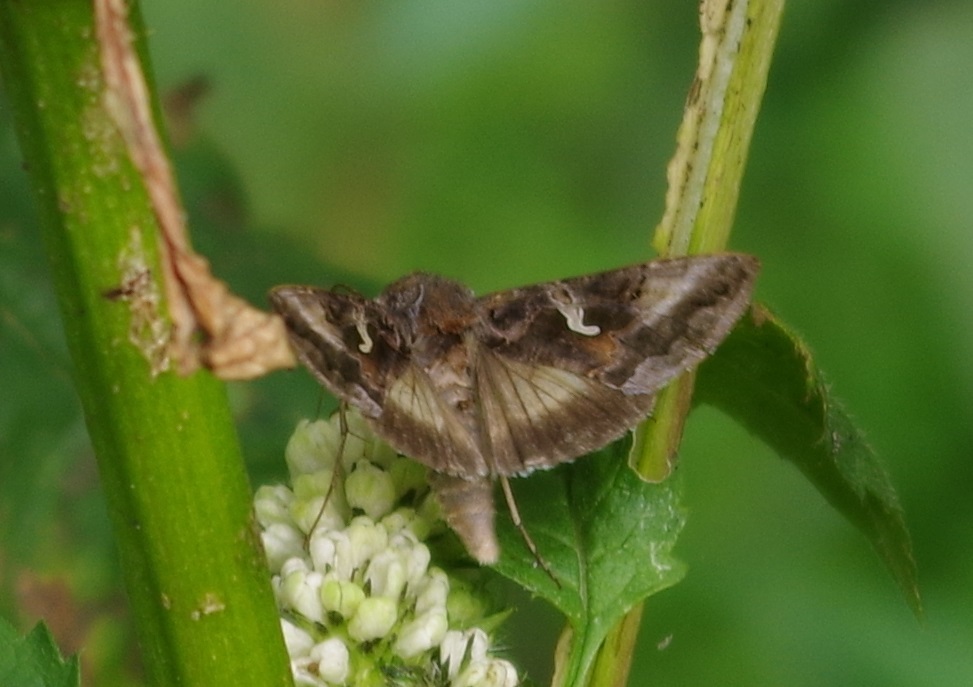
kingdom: Animalia
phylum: Arthropoda
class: Insecta
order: Lepidoptera
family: Noctuidae
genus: Autographa
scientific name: Autographa gamma
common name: Silver y
